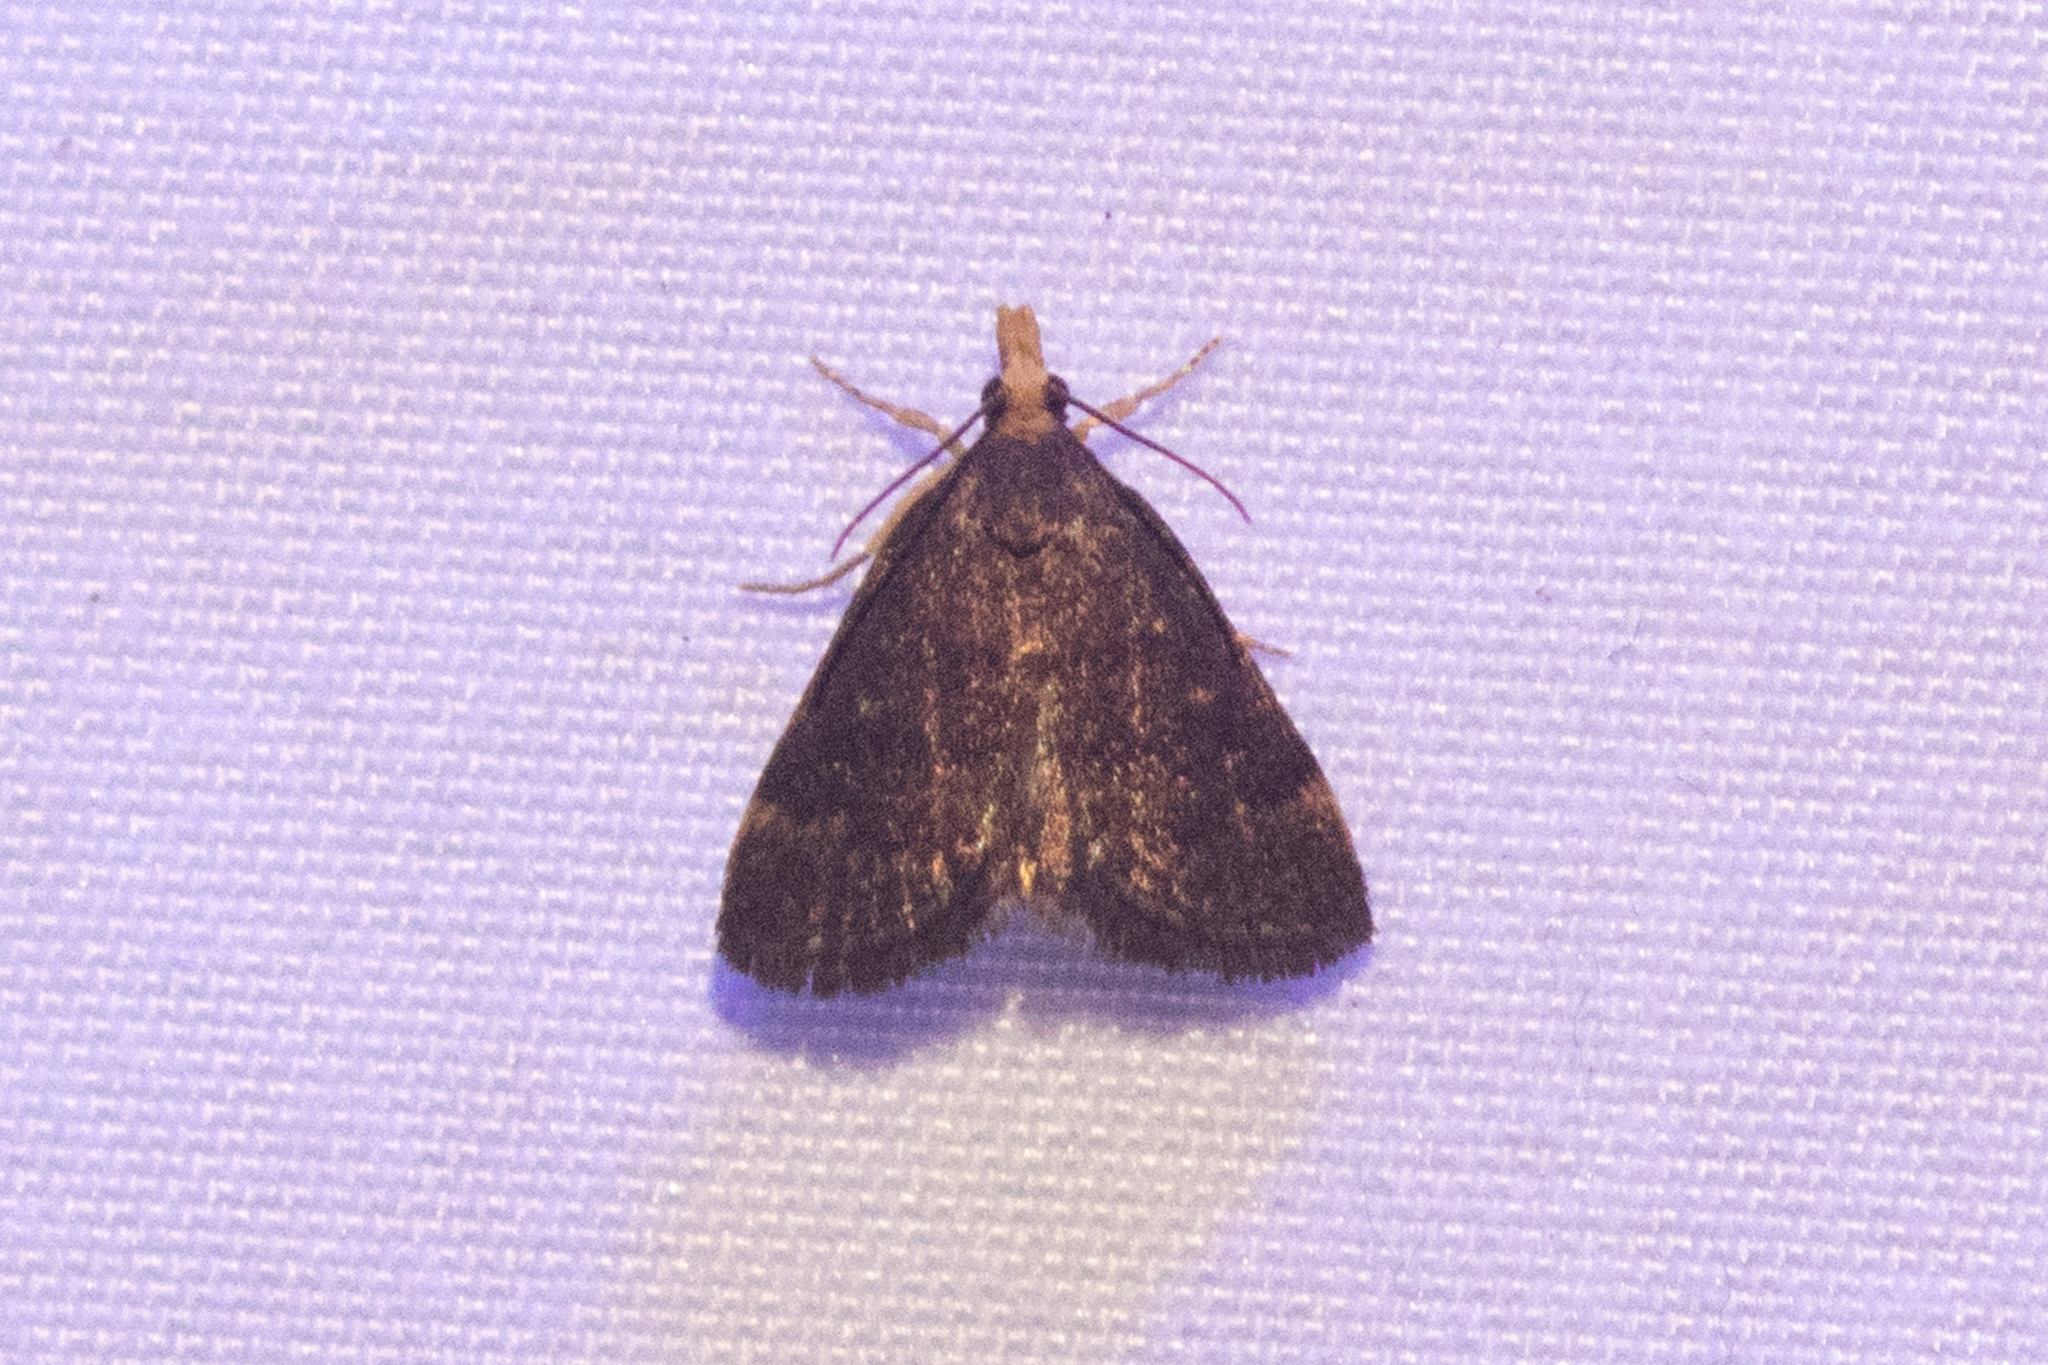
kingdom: Animalia
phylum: Arthropoda
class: Insecta
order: Lepidoptera
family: Crambidae
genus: Pyrausta
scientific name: Pyrausta merrickalis
